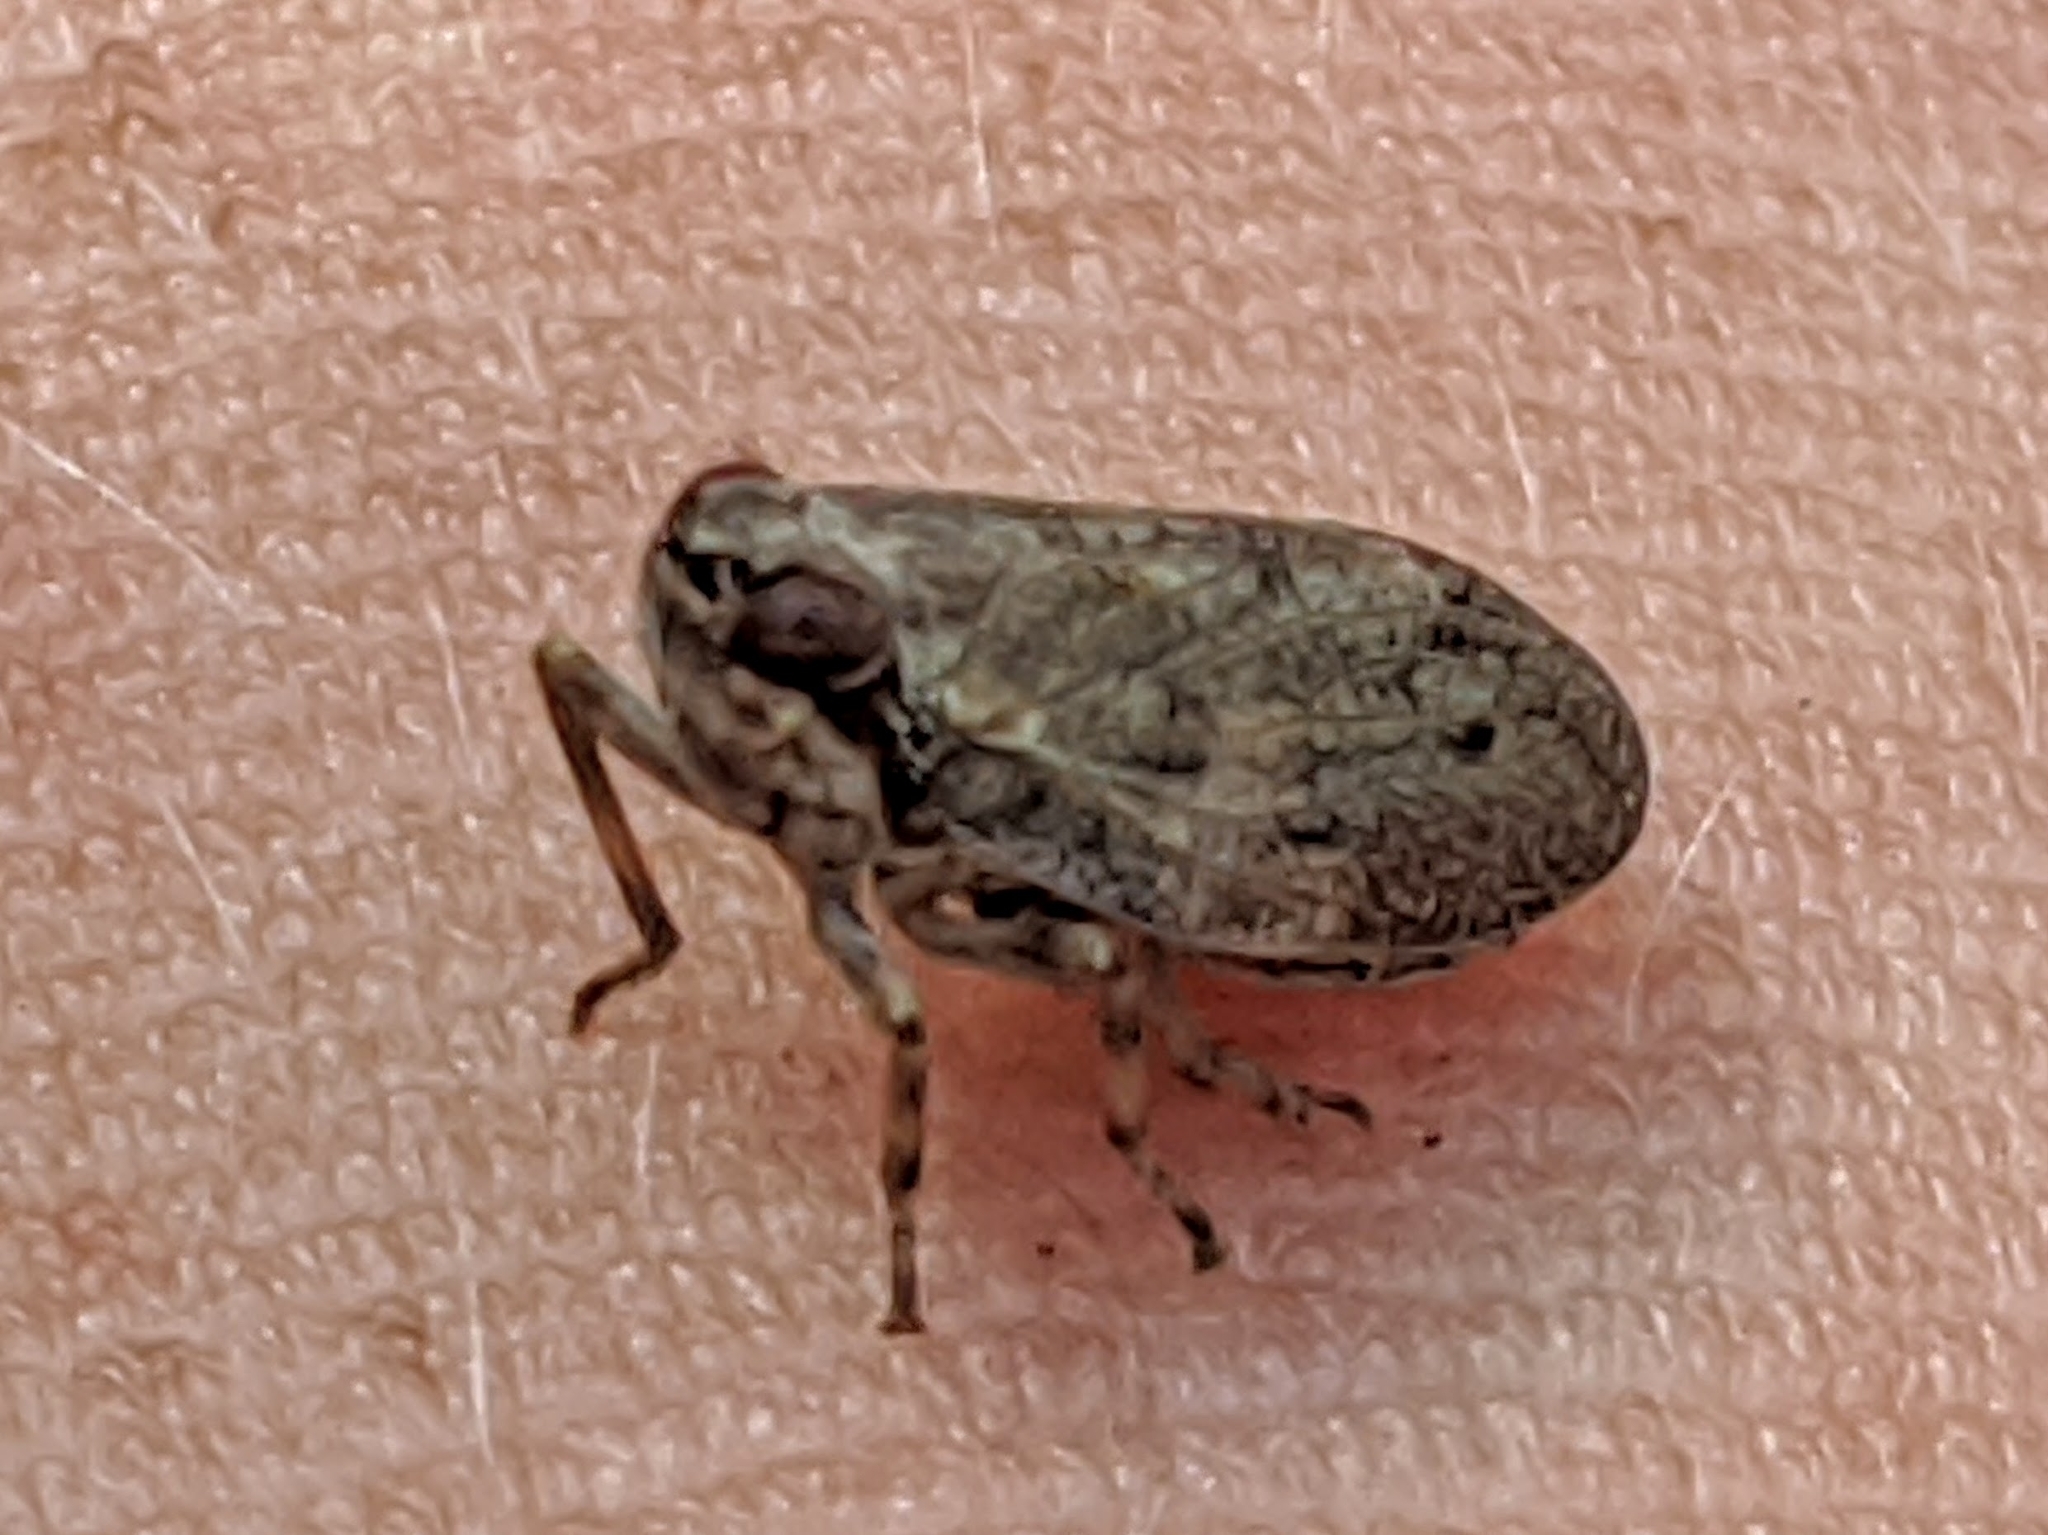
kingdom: Animalia
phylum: Arthropoda
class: Insecta
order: Hemiptera
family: Issidae
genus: Issus
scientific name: Issus coleoptratus
